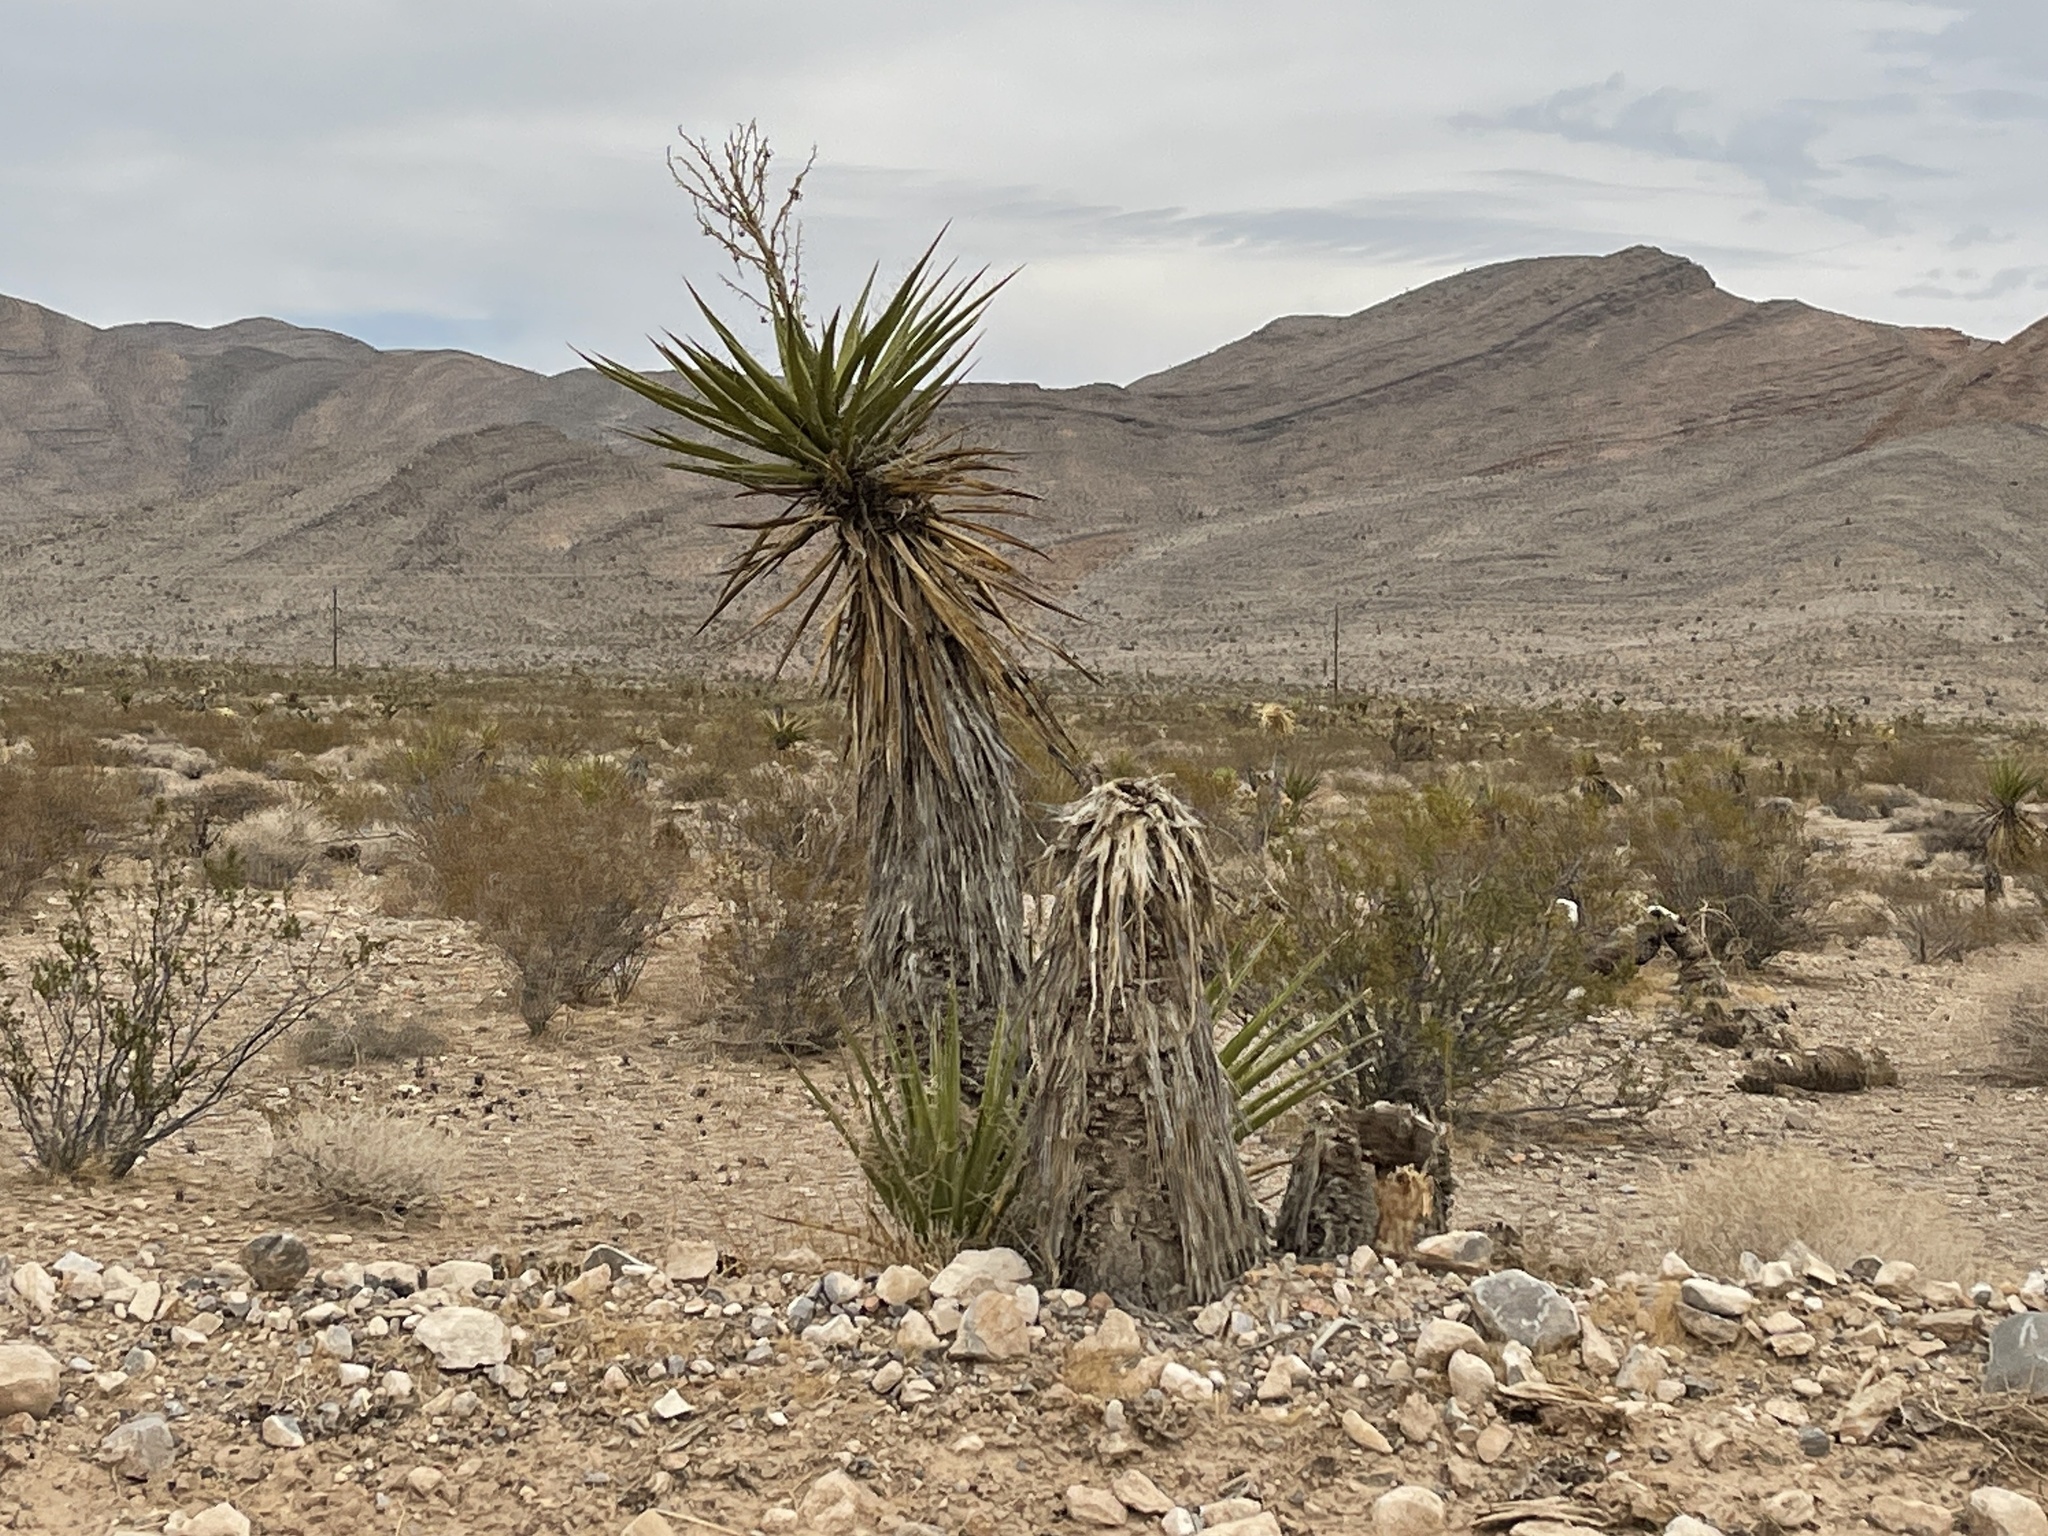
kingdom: Plantae
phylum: Tracheophyta
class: Liliopsida
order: Asparagales
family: Asparagaceae
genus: Yucca
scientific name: Yucca schidigera
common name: Mojave yucca
